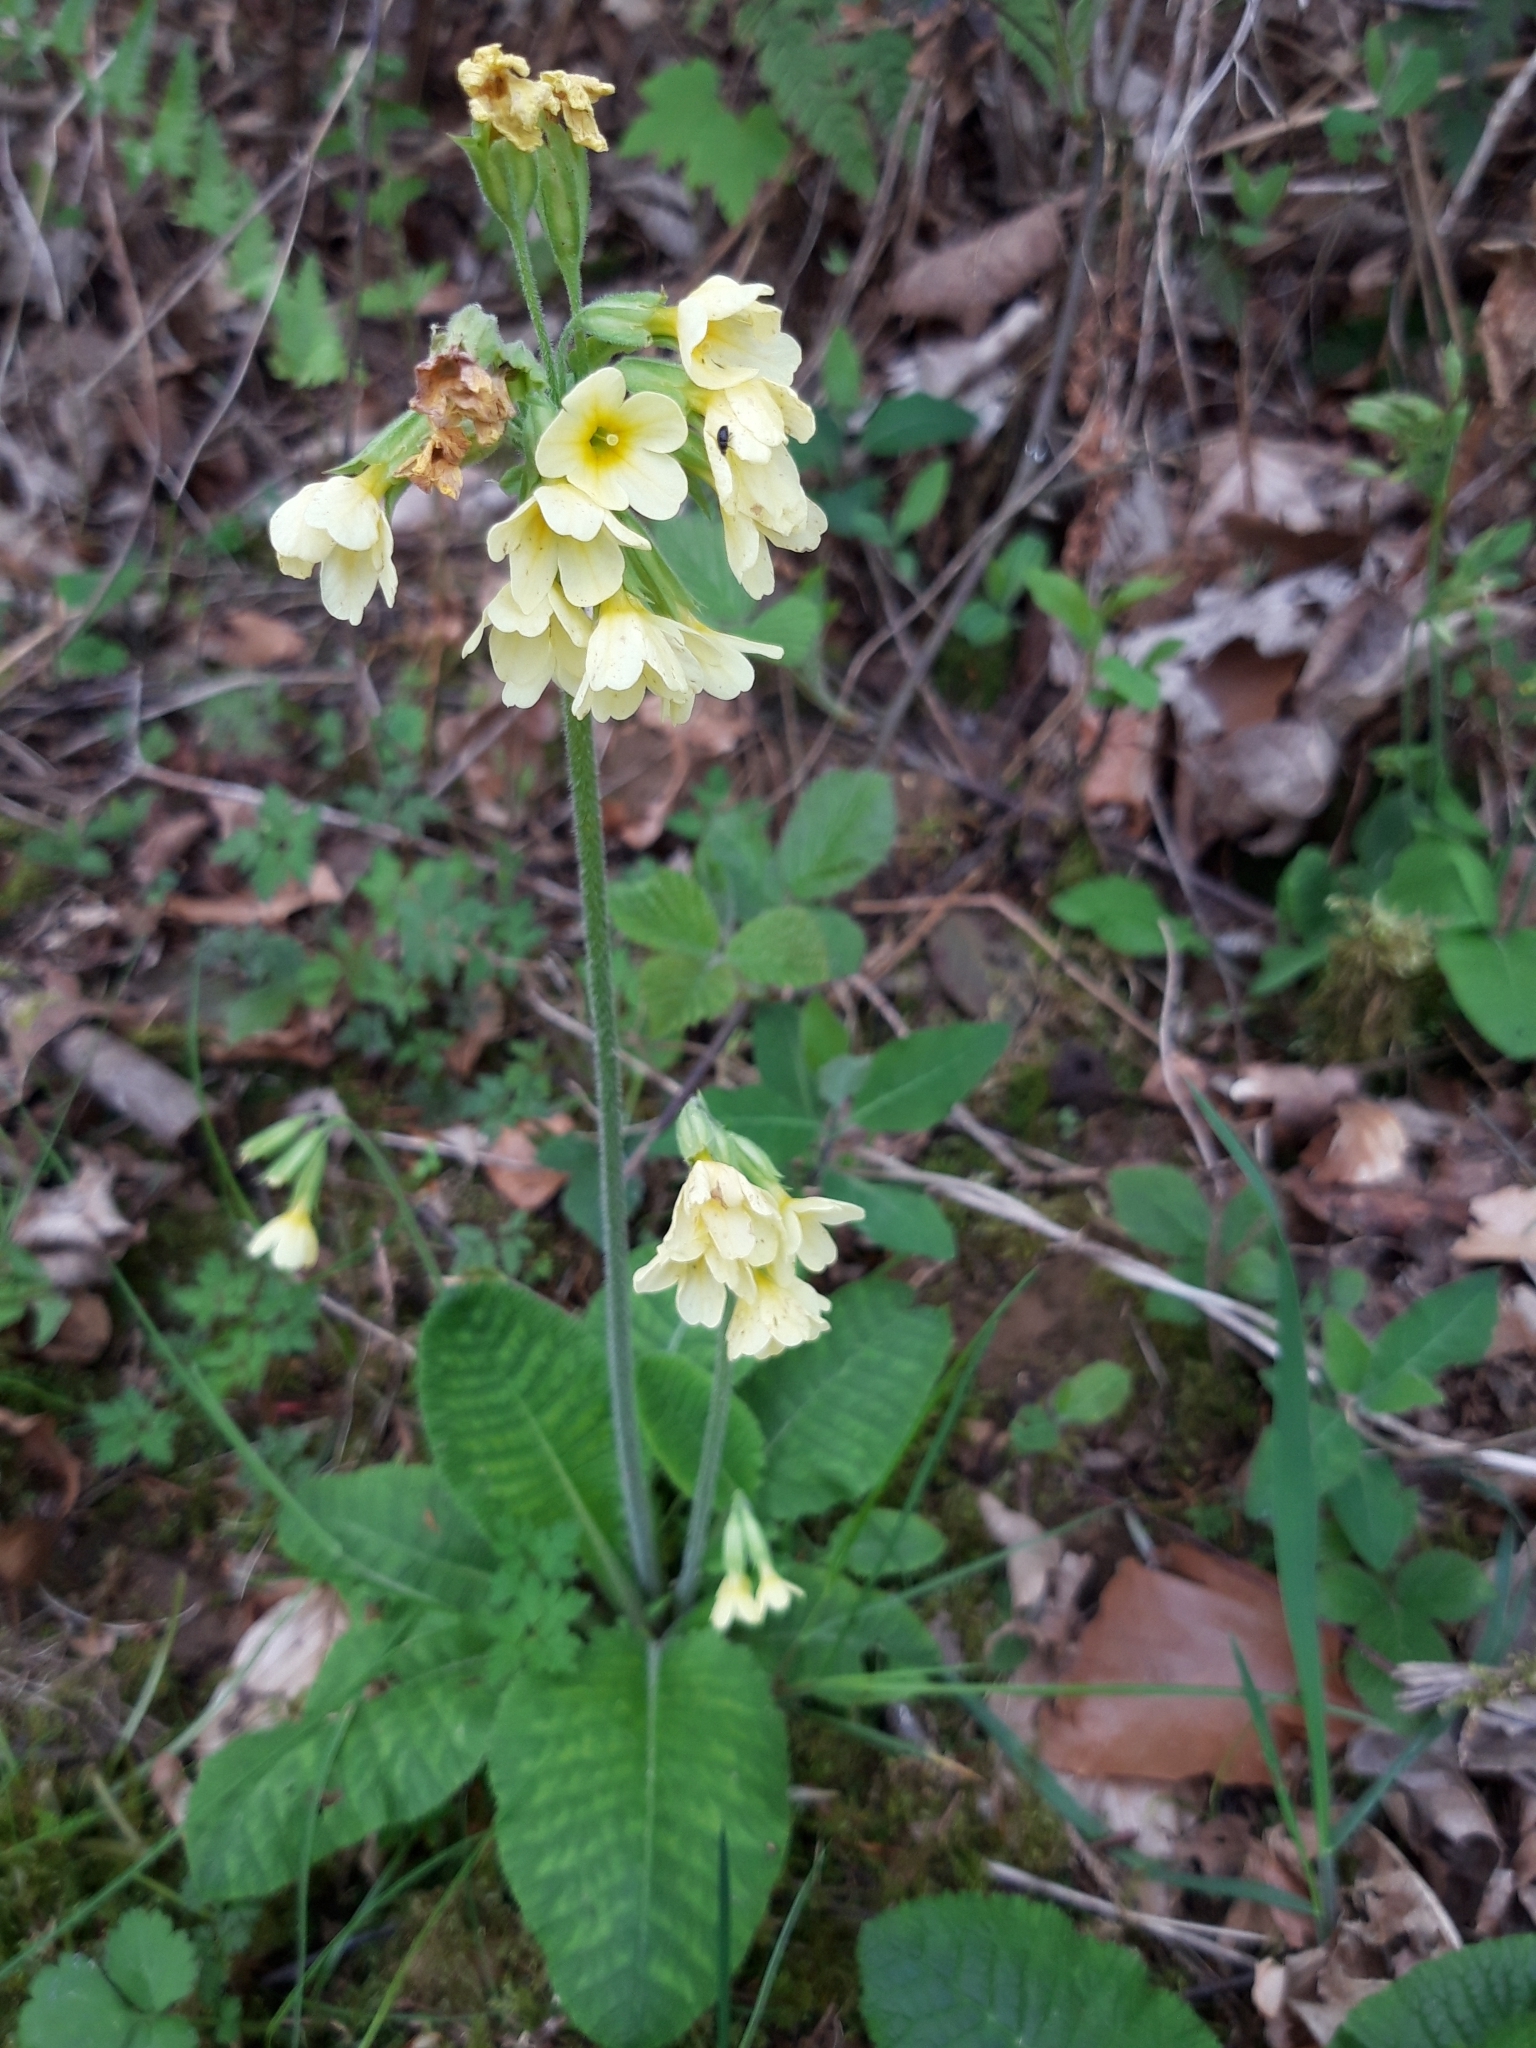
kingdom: Plantae
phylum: Tracheophyta
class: Magnoliopsida
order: Ericales
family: Primulaceae
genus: Primula
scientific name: Primula elatior
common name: Oxlip
